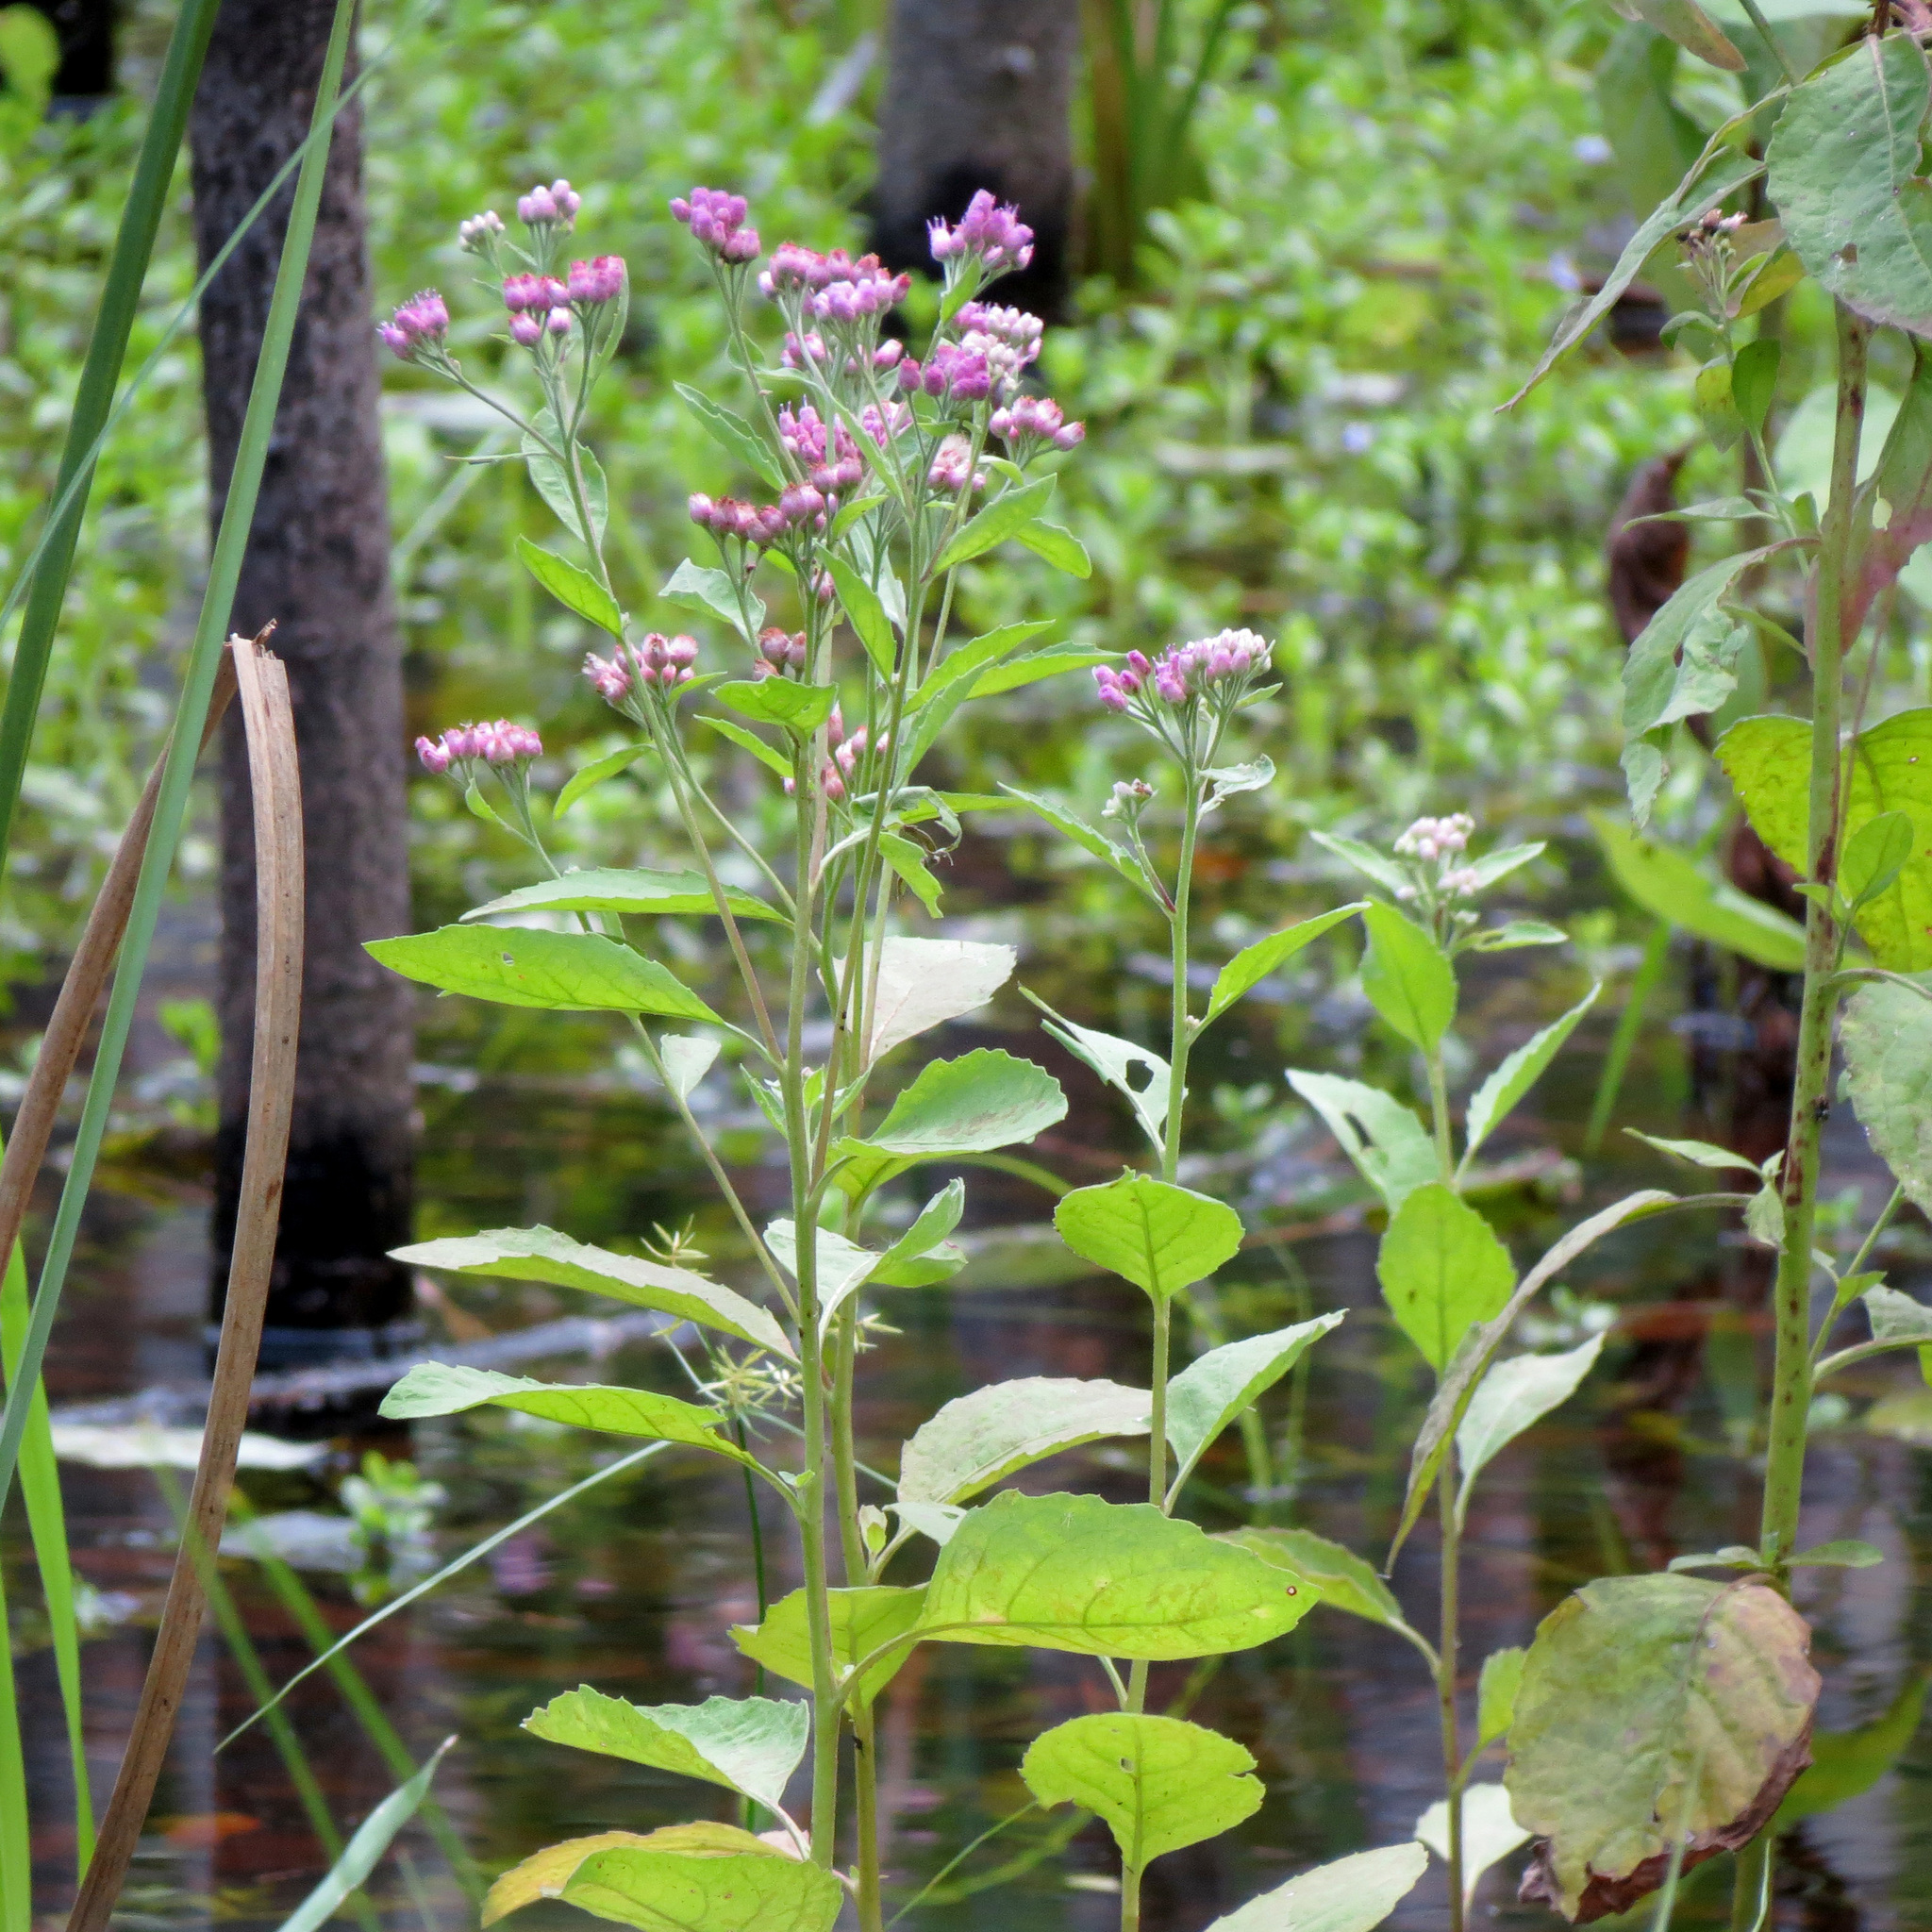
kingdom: Plantae
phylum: Tracheophyta
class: Magnoliopsida
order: Asterales
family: Asteraceae
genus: Pluchea
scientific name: Pluchea odorata
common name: Saltmarsh fleabane
